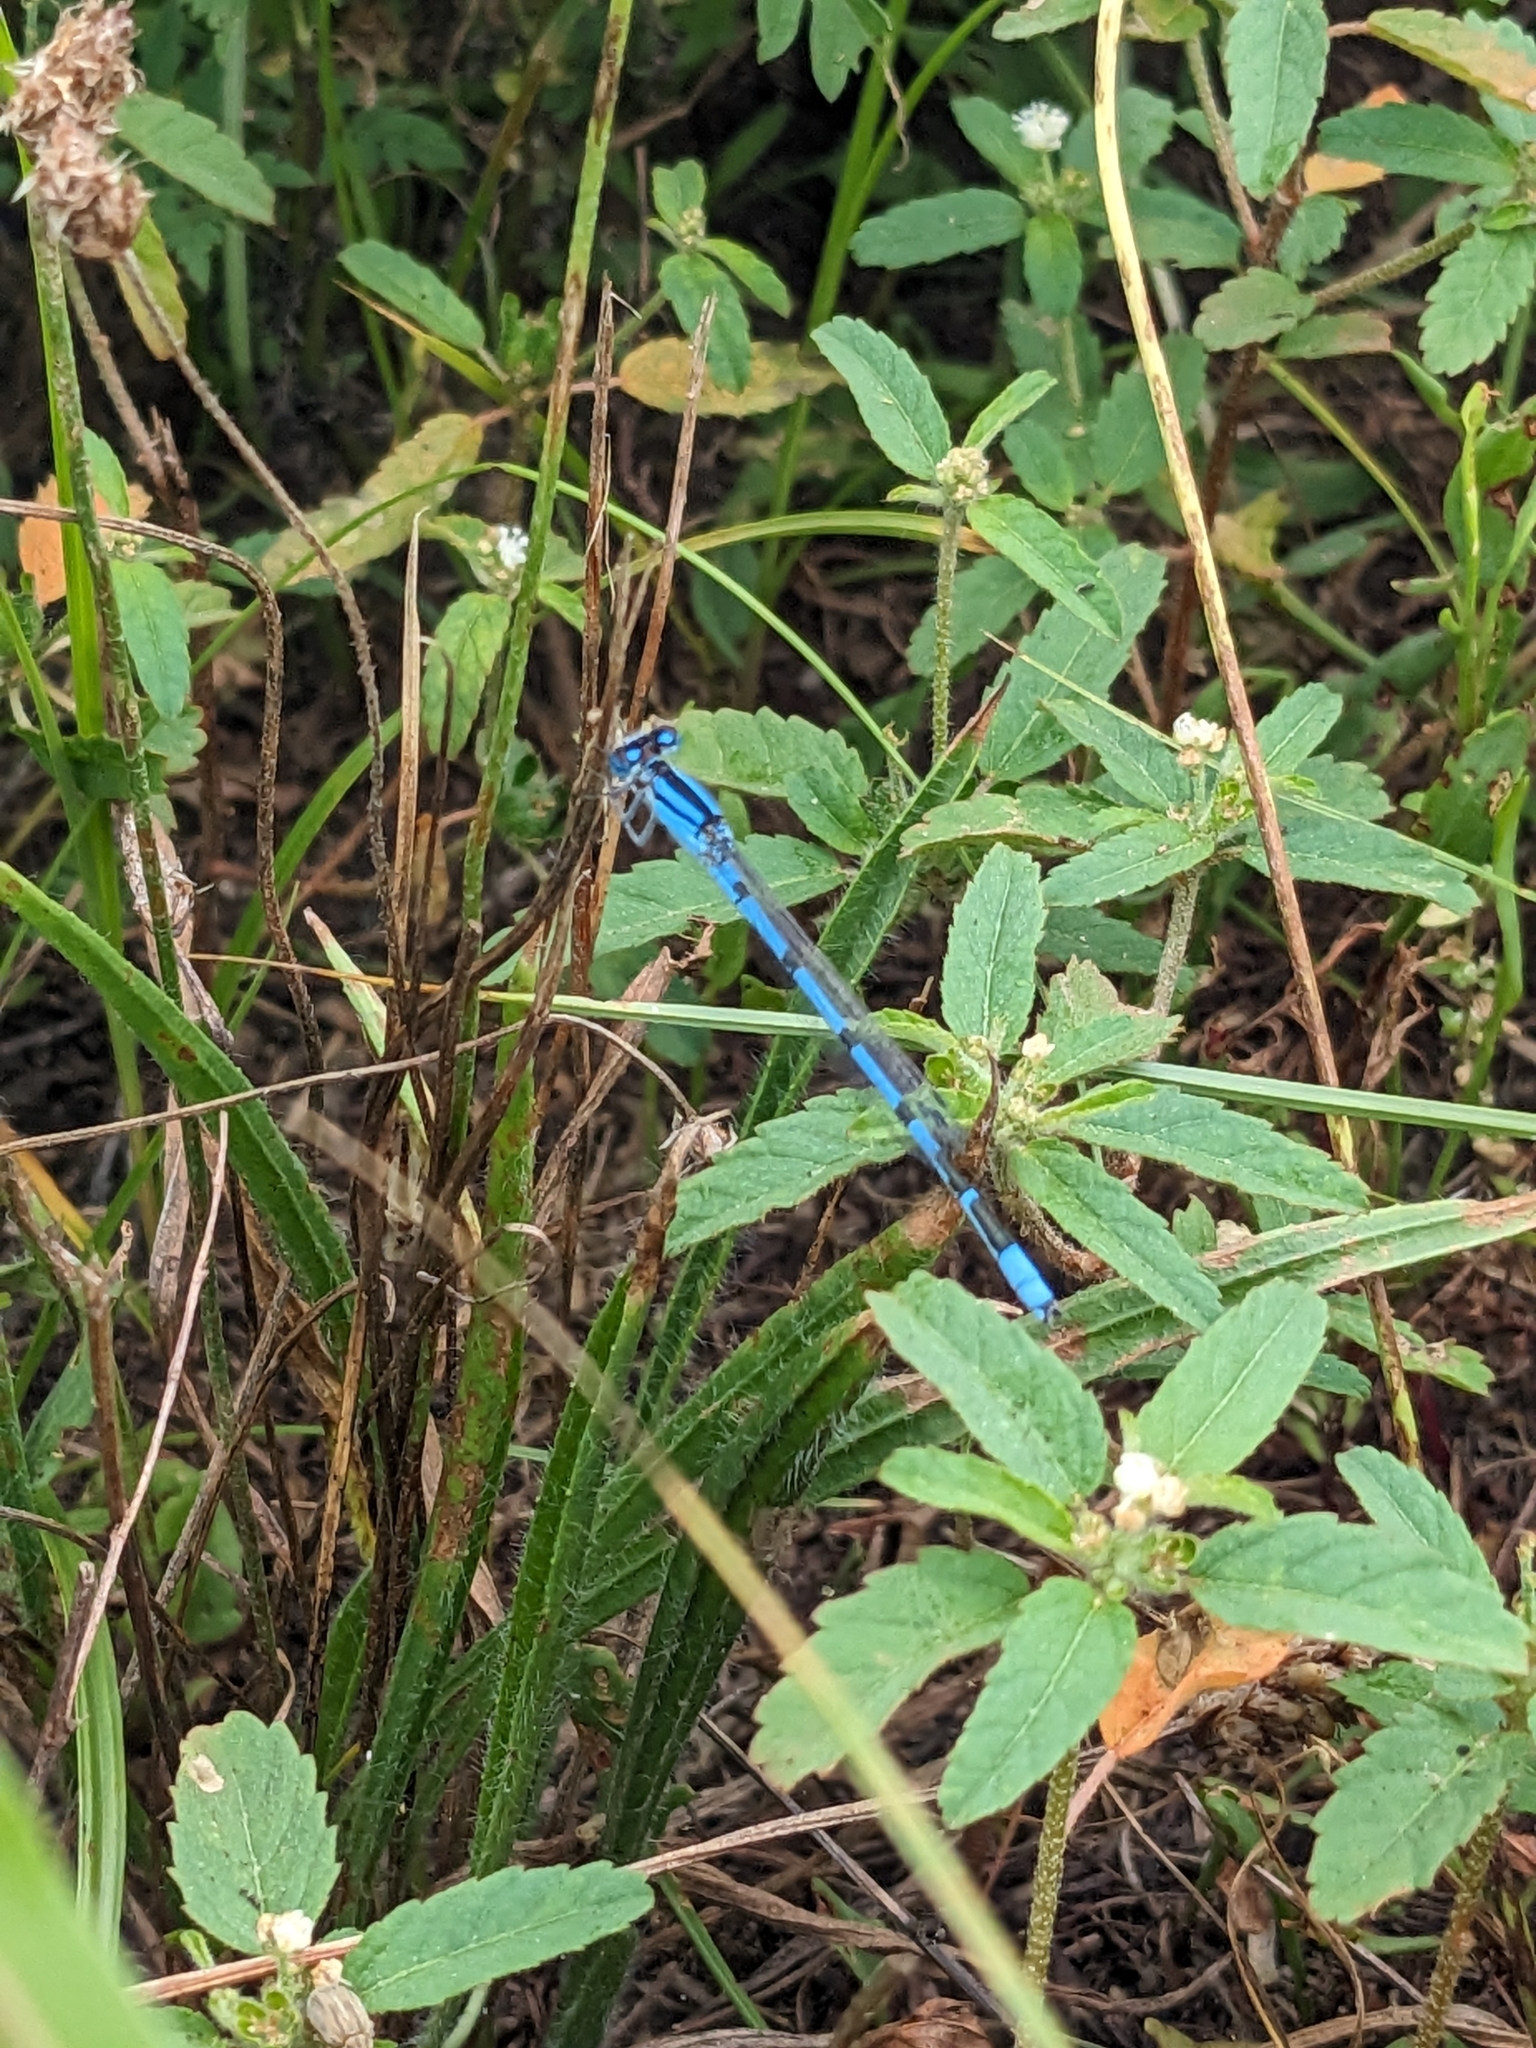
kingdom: Animalia
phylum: Arthropoda
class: Insecta
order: Odonata
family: Coenagrionidae
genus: Enallagma
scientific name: Enallagma civile
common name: Damselfly
